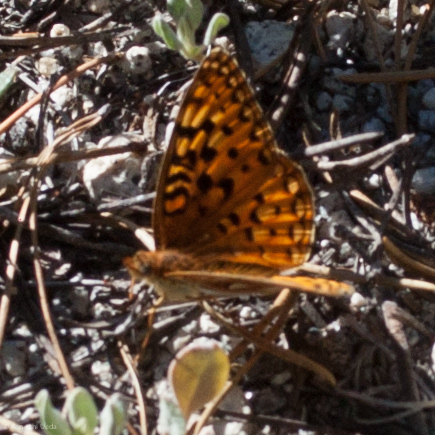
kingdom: Animalia
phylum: Arthropoda
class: Insecta
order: Lepidoptera
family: Nymphalidae
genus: Speyeria
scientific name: Speyeria zerene
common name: Zerene fritillary
